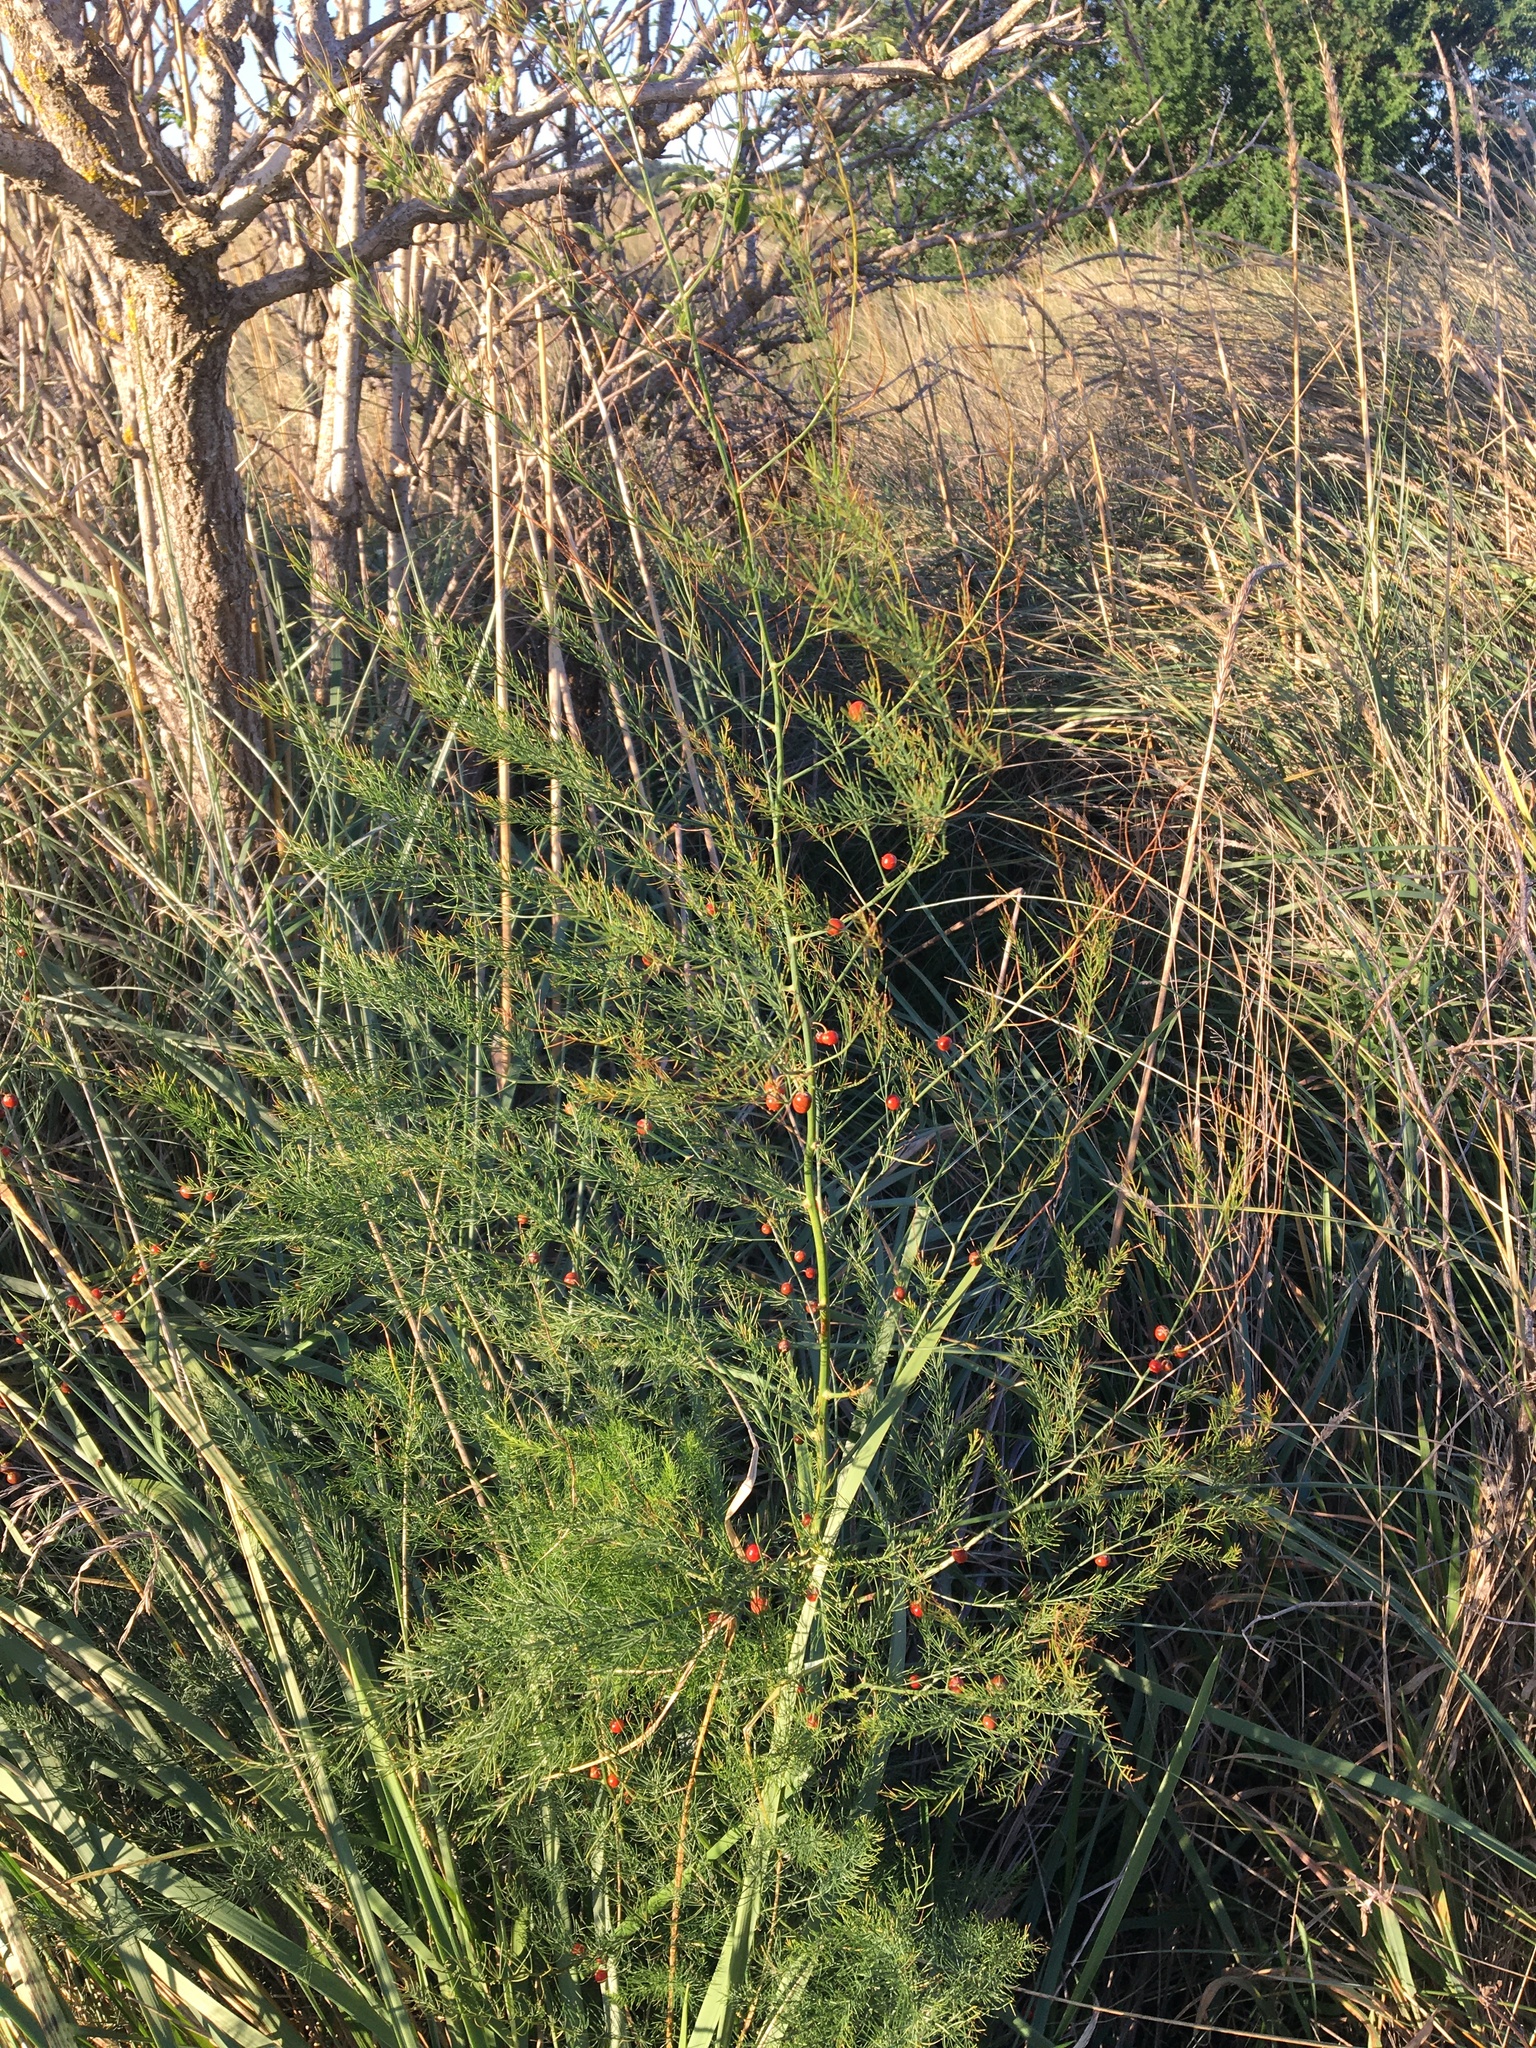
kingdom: Plantae
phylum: Tracheophyta
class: Liliopsida
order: Asparagales
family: Asparagaceae
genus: Asparagus
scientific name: Asparagus officinalis
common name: Garden asparagus
